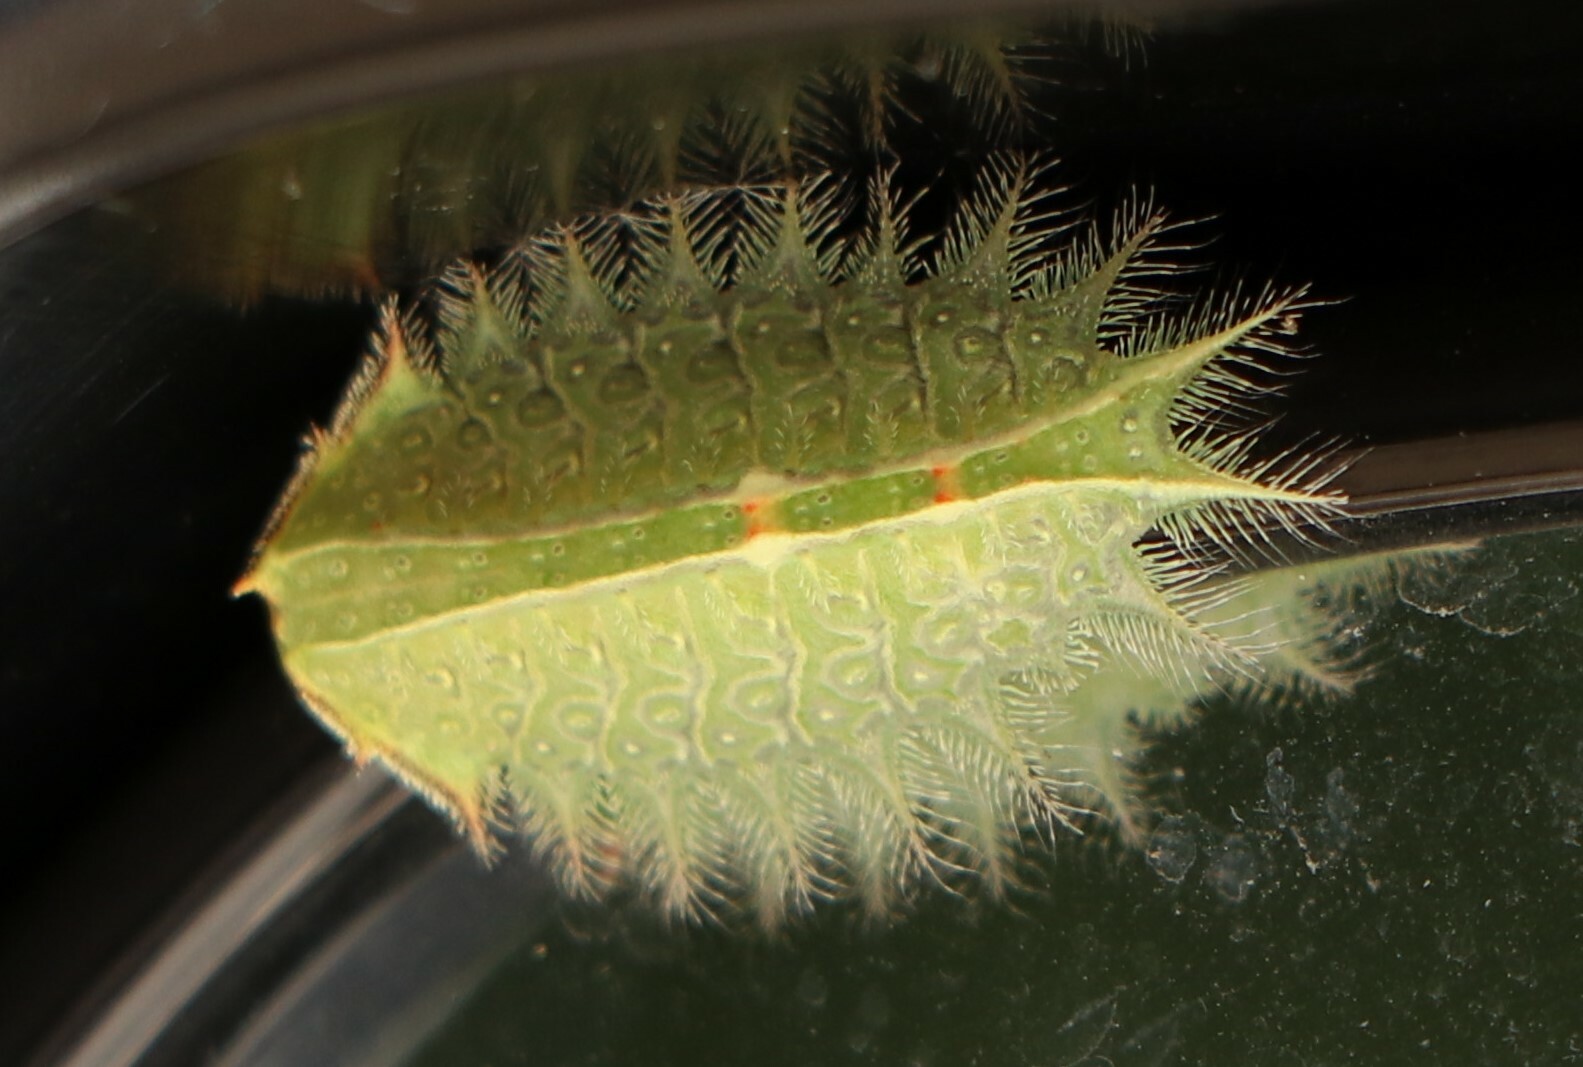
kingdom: Animalia
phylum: Arthropoda
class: Insecta
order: Lepidoptera
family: Limacodidae
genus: Isa
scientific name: Isa textula
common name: Crowned slug moth
